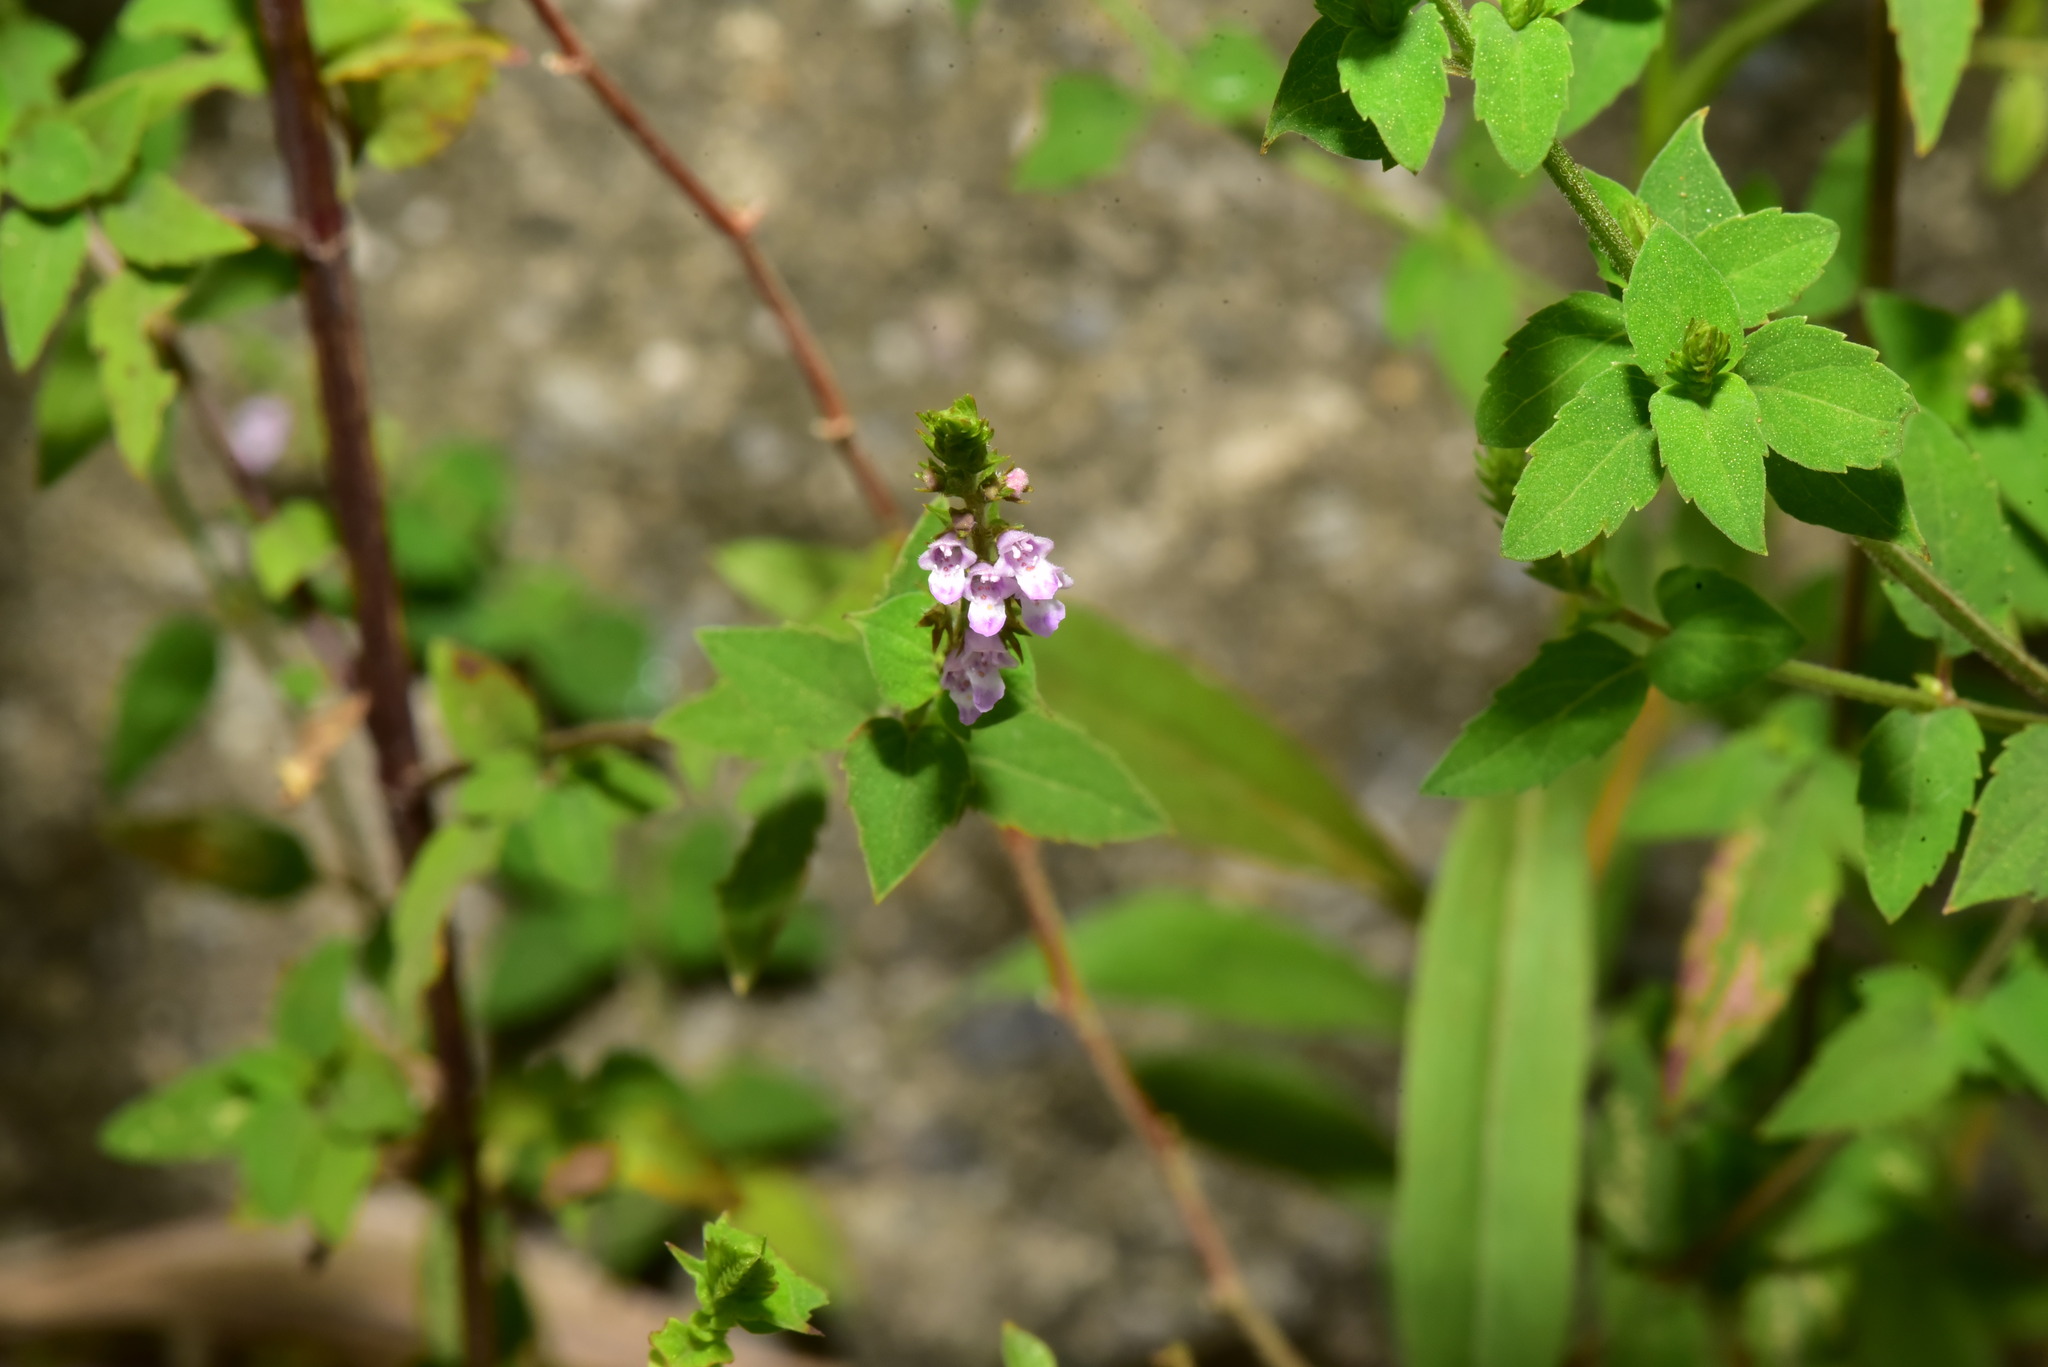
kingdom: Plantae
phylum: Tracheophyta
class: Magnoliopsida
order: Lamiales
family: Lamiaceae
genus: Mosla
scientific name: Mosla dianthera
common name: Miniature beefsteakplant
